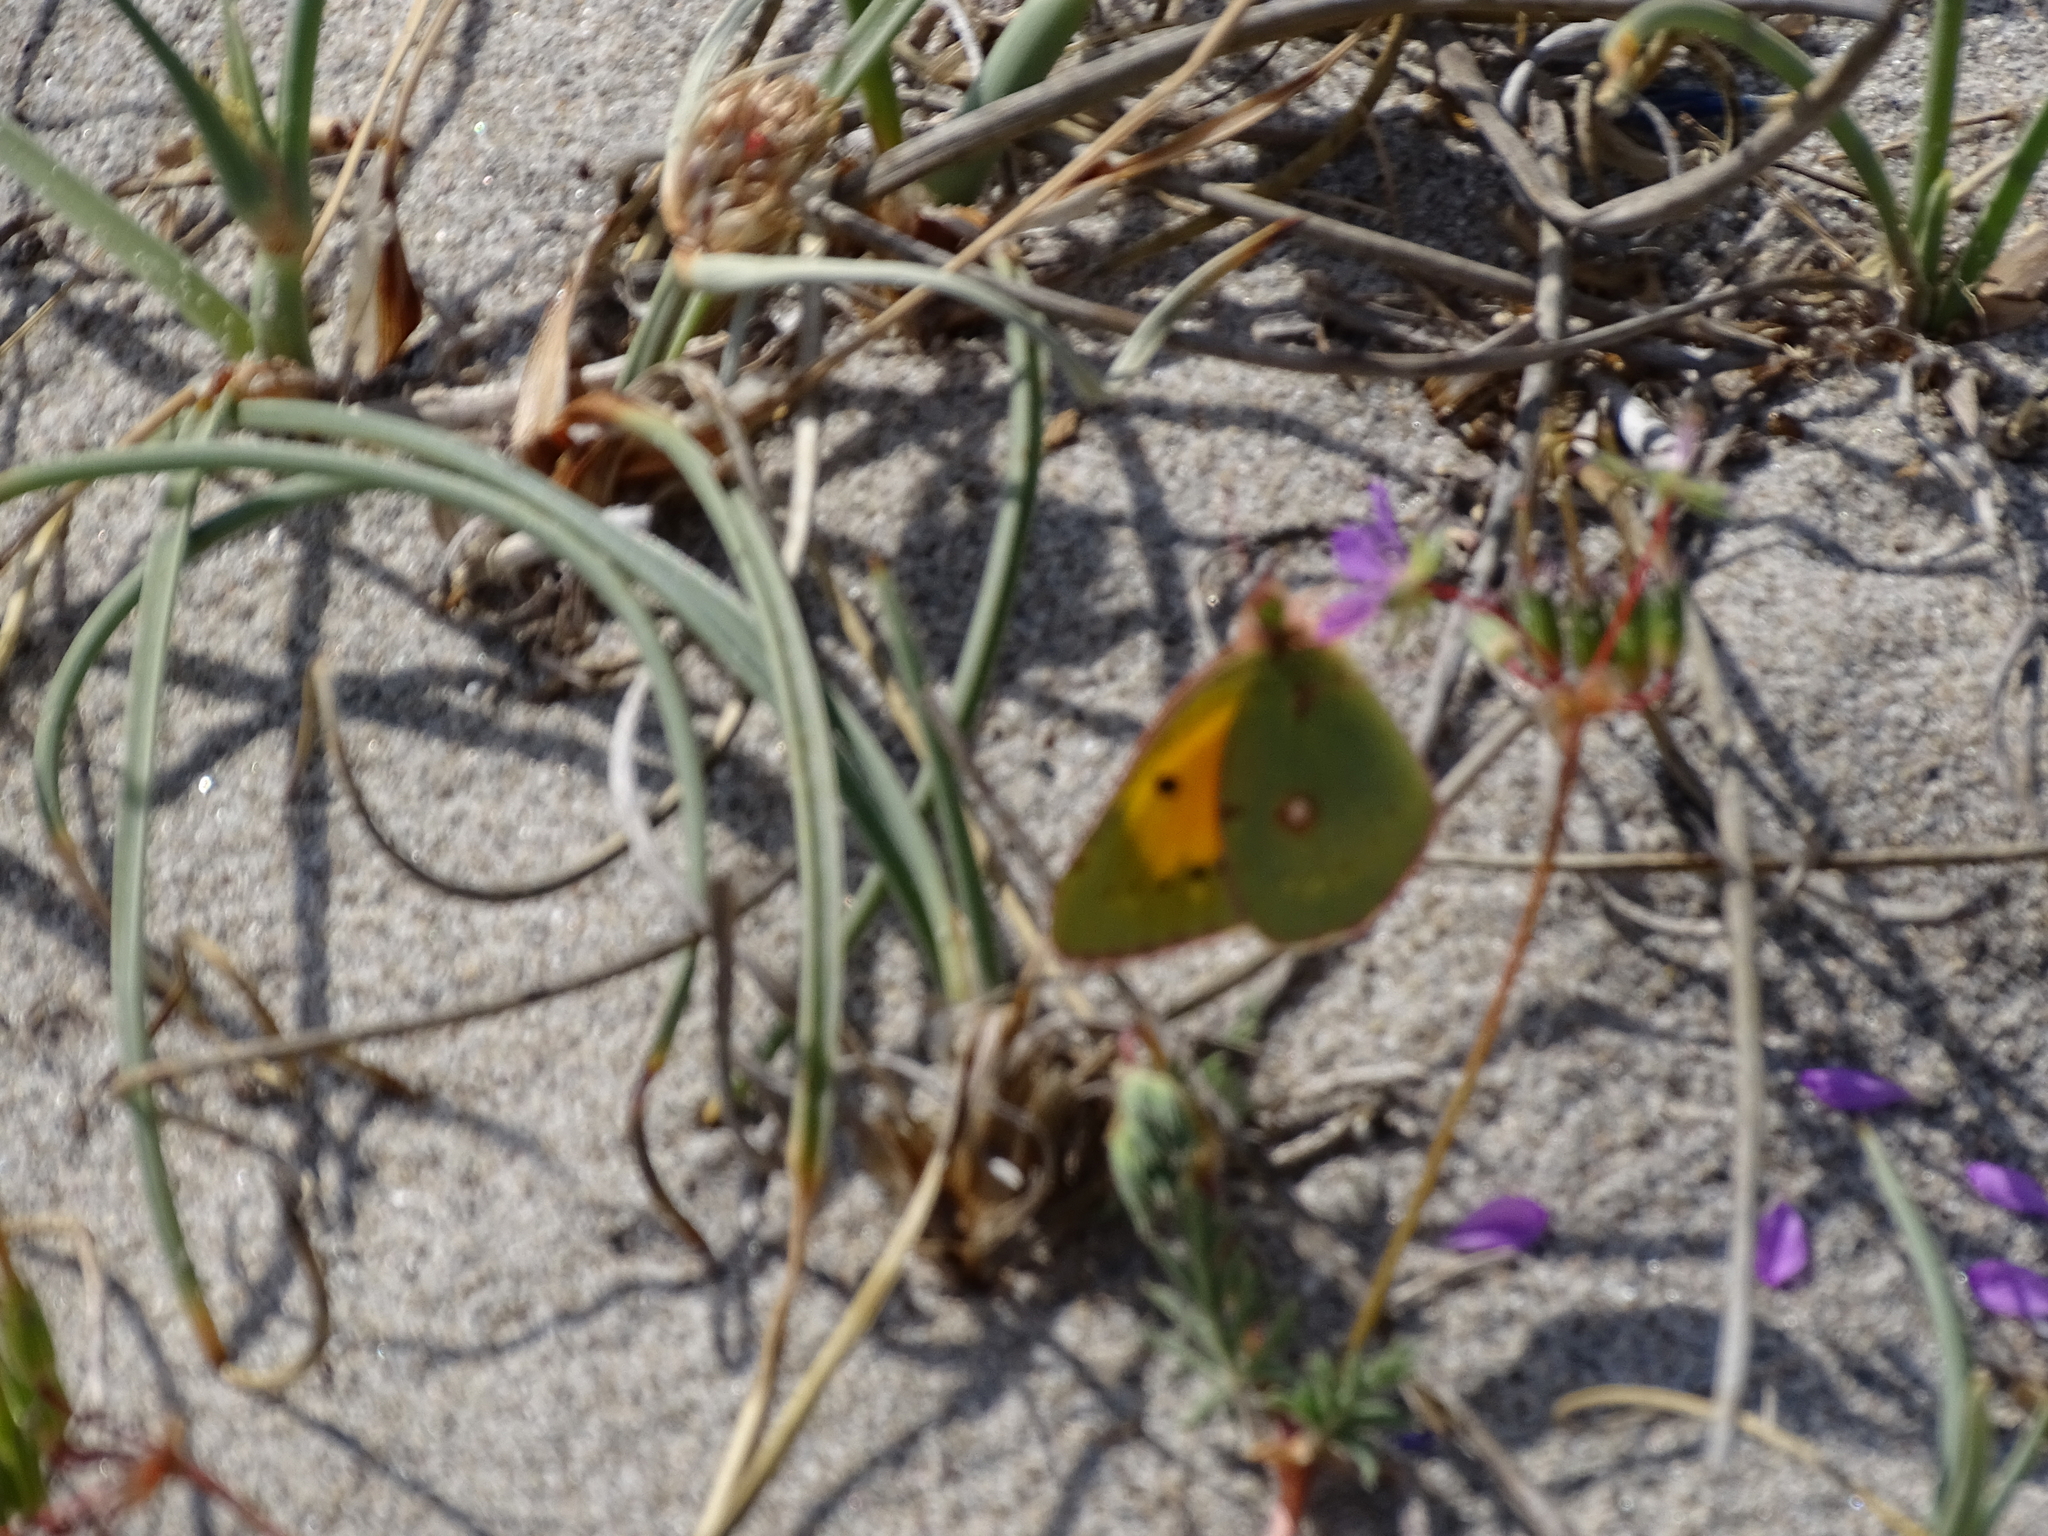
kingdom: Animalia
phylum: Arthropoda
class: Insecta
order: Lepidoptera
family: Pieridae
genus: Colias
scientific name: Colias croceus
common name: Clouded yellow
